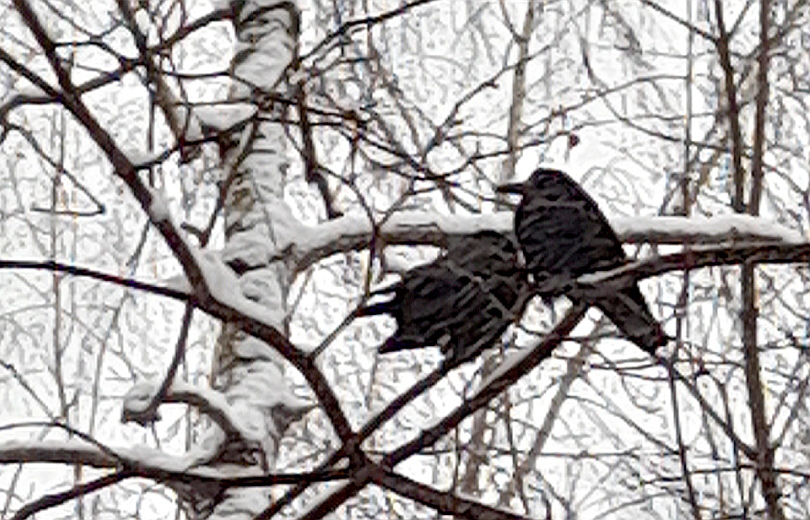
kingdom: Animalia
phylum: Chordata
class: Aves
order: Passeriformes
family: Corvidae
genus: Corvus
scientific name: Corvus frugilegus
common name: Rook
